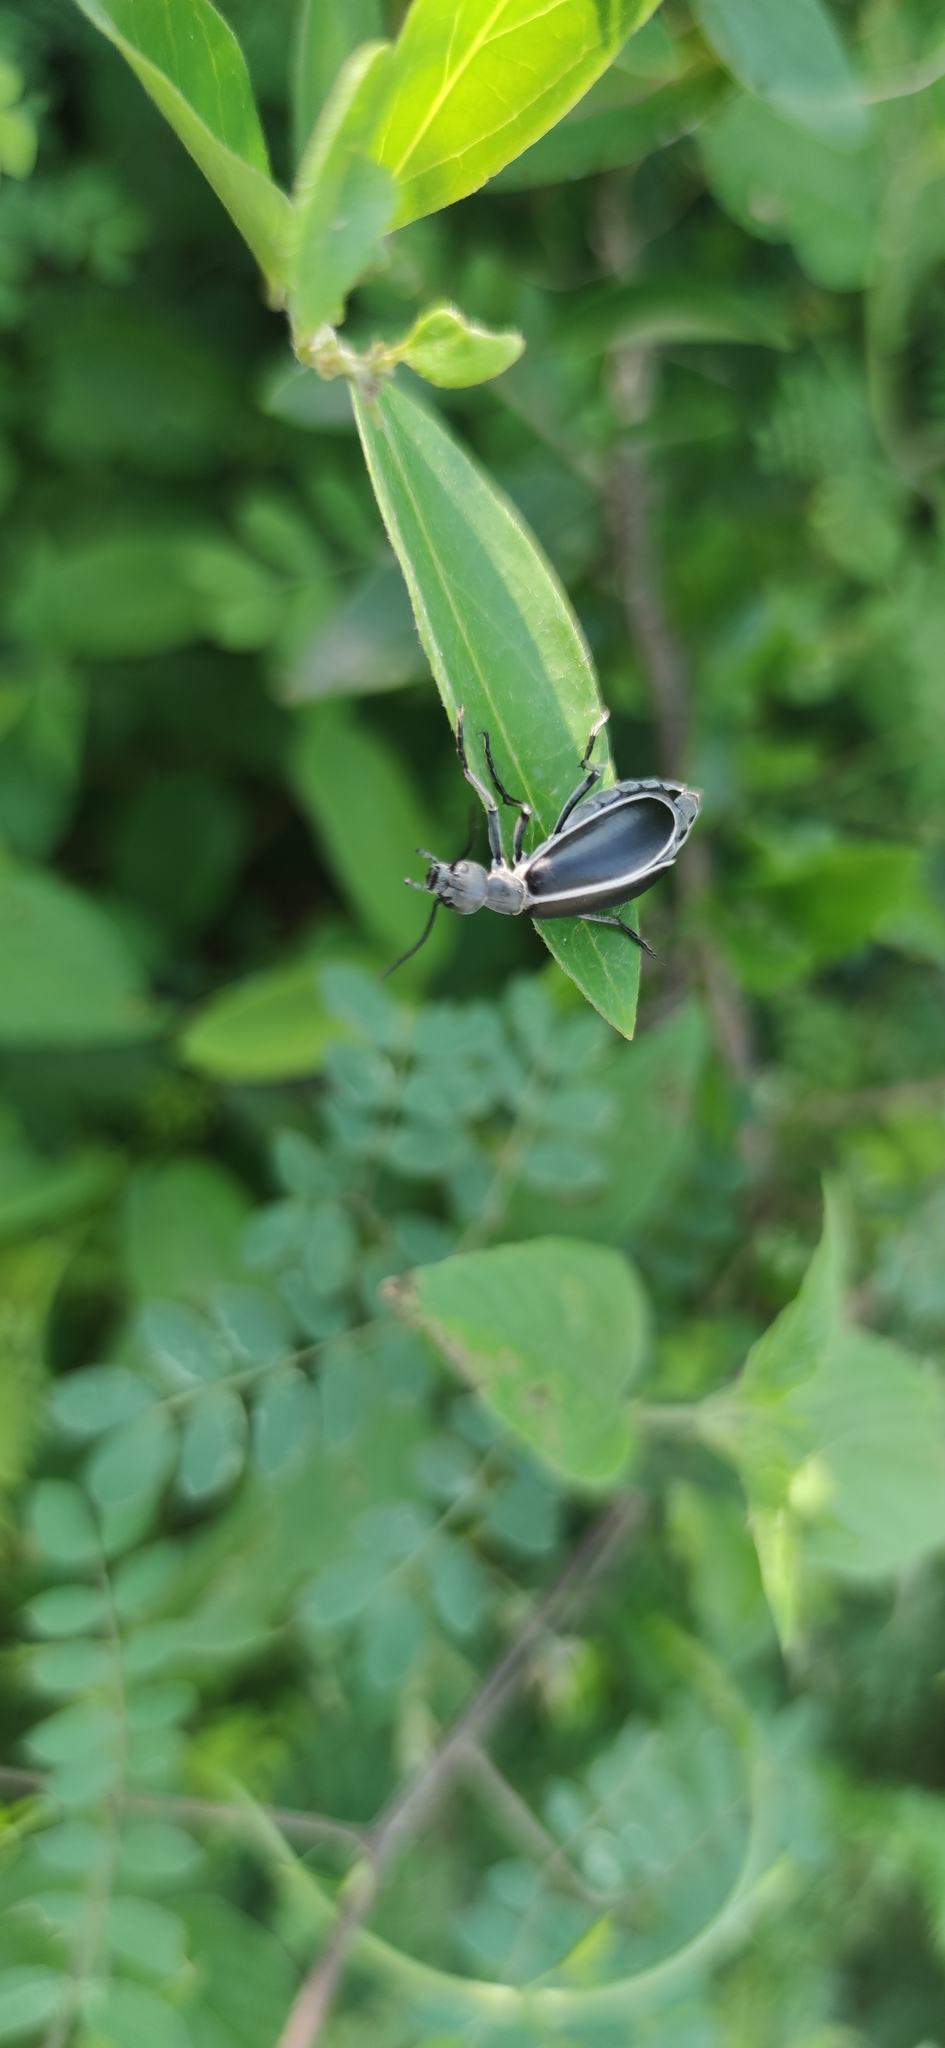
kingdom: Animalia
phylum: Arthropoda
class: Insecta
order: Coleoptera
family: Meloidae
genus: Epicauta
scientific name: Epicauta subatra
